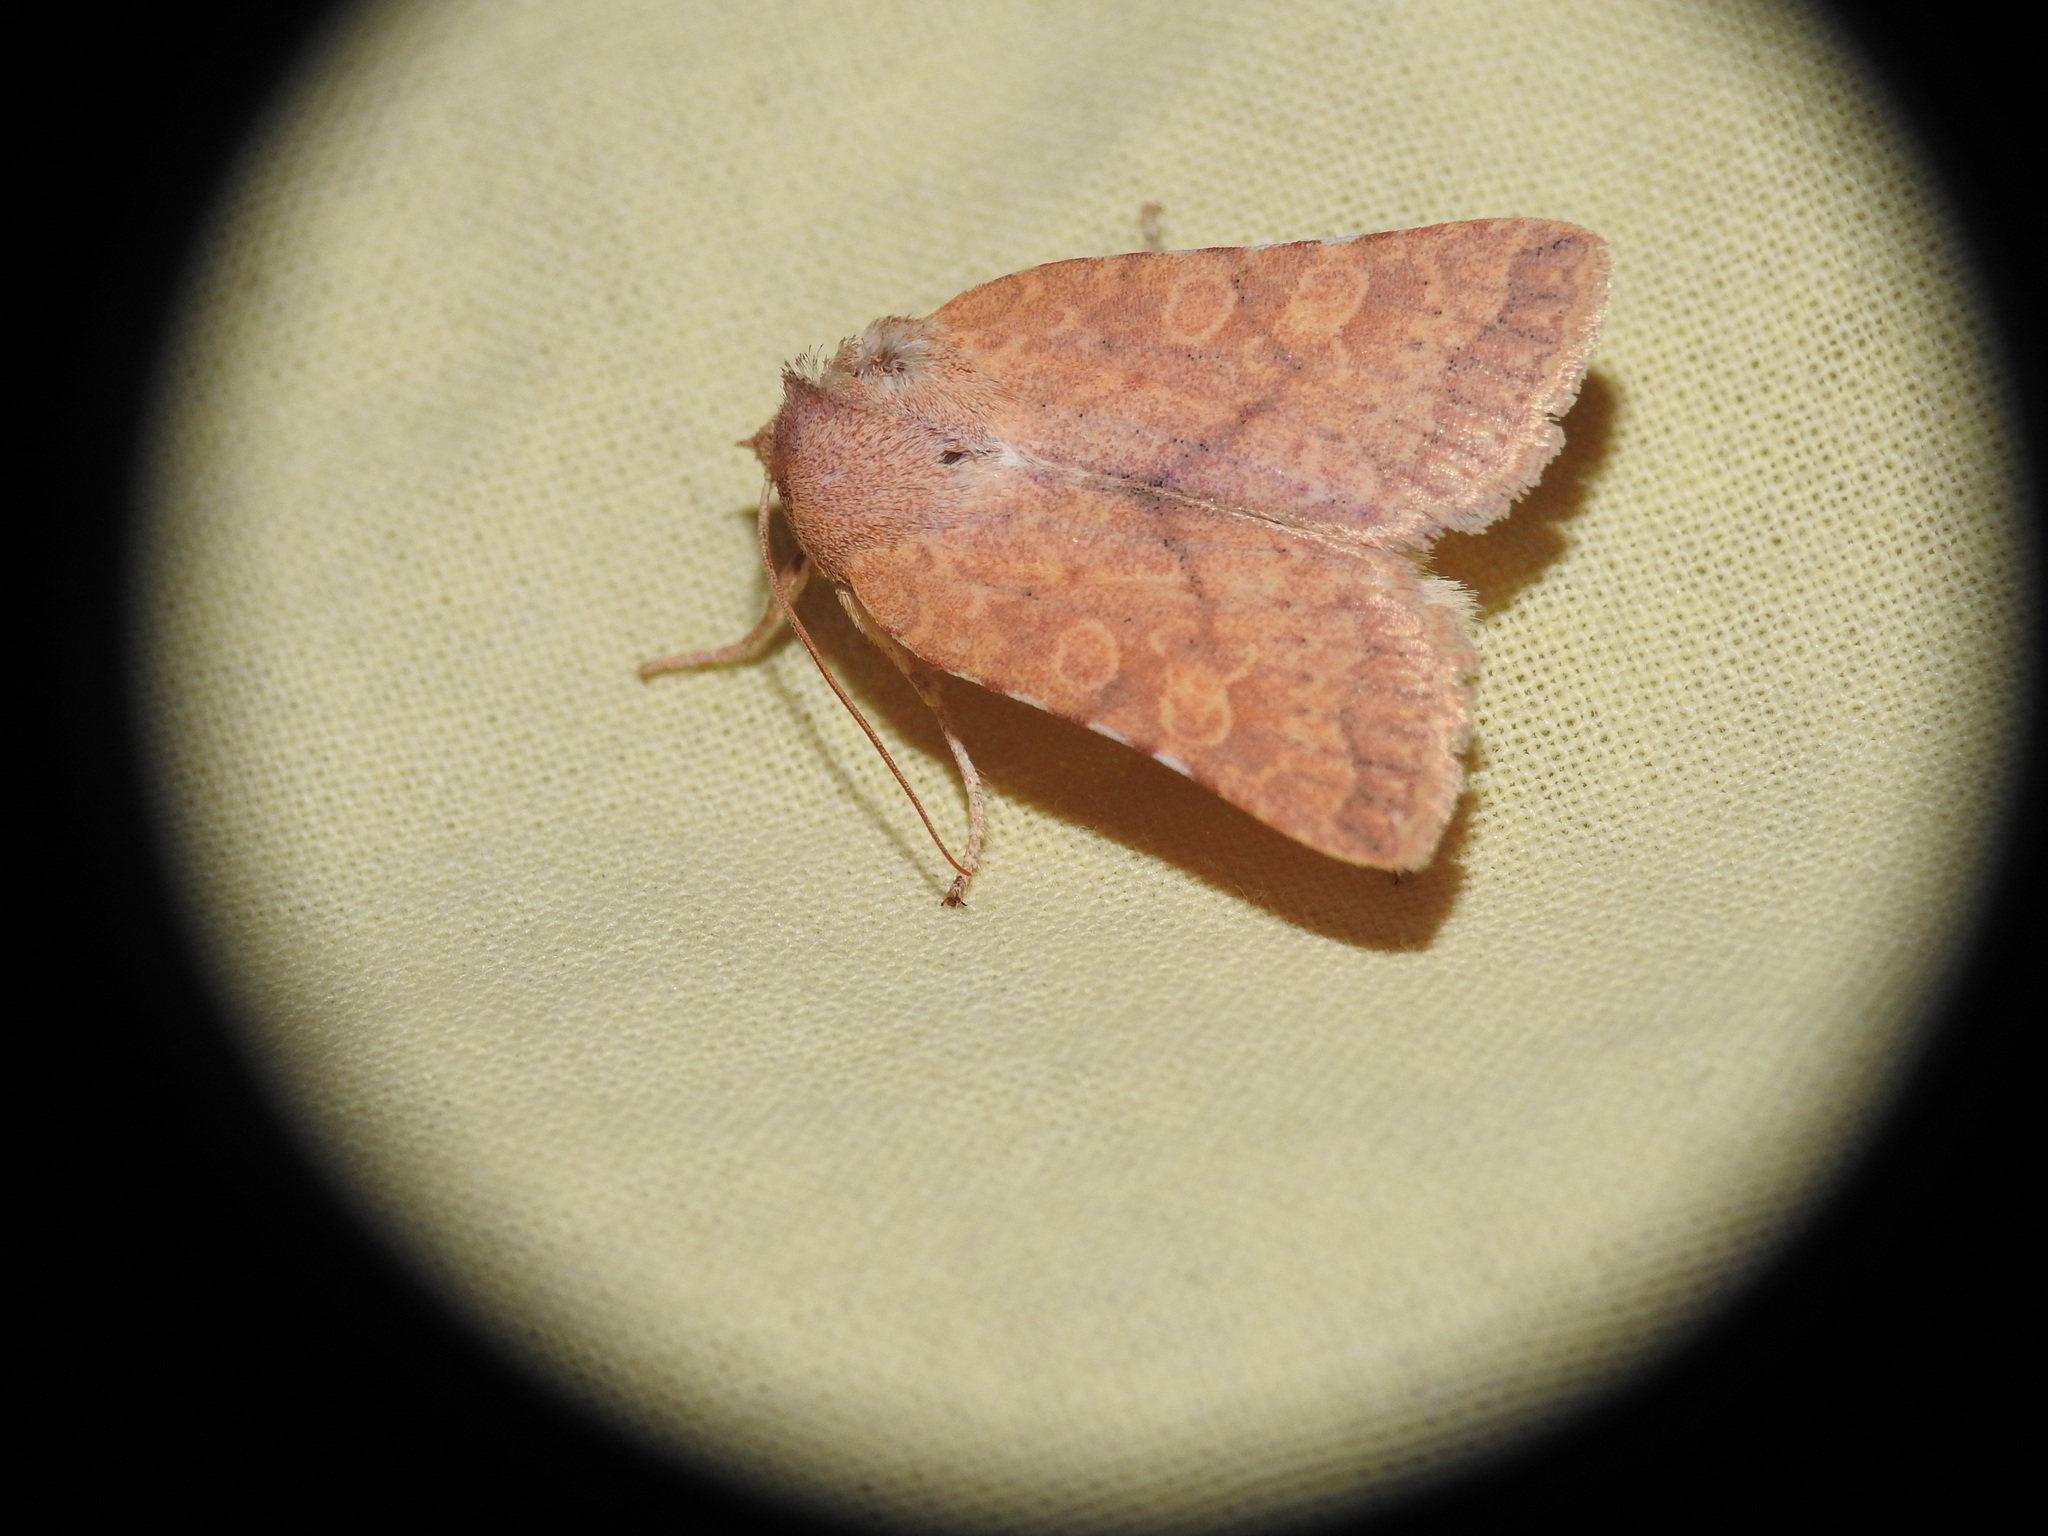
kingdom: Animalia
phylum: Arthropoda
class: Insecta
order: Lepidoptera
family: Noctuidae
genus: Jodia
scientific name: Jodia croceago
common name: Orange upperwing
